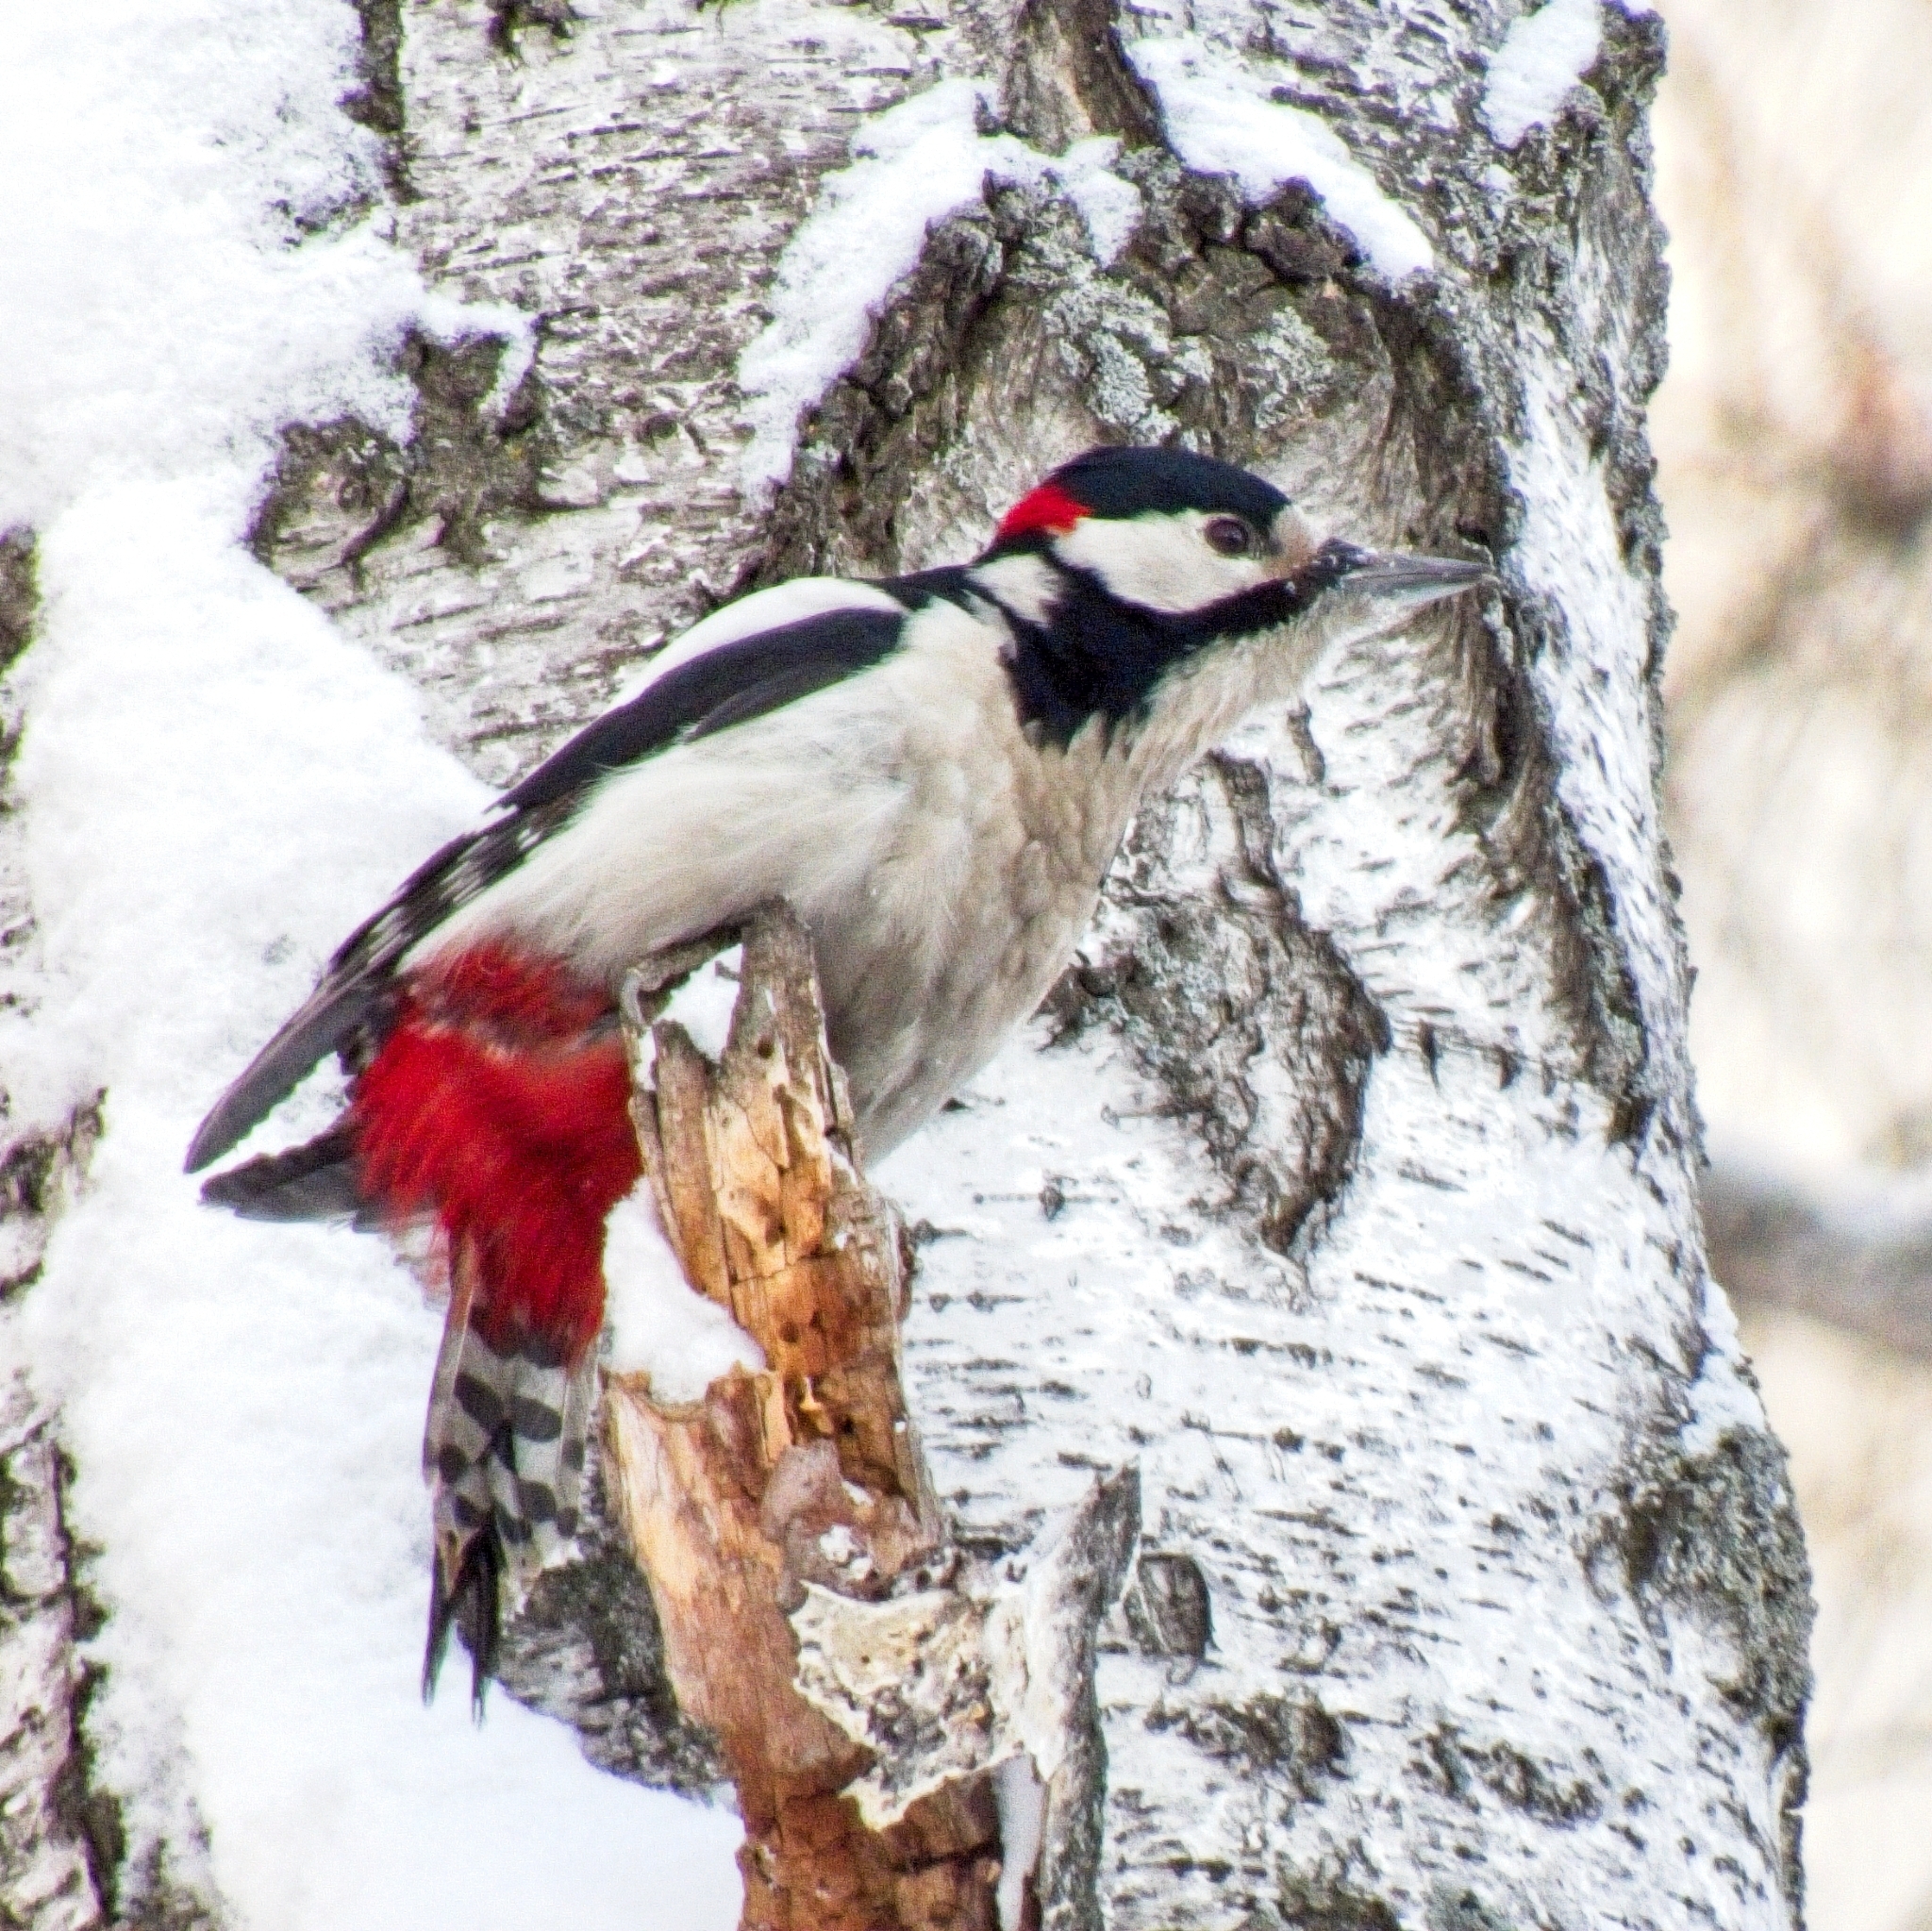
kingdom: Animalia
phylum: Chordata
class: Aves
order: Piciformes
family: Picidae
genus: Dendrocopos
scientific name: Dendrocopos major
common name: Great spotted woodpecker
